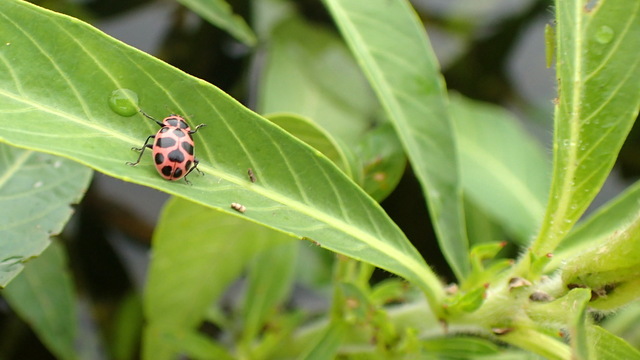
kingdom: Animalia
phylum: Arthropoda
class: Insecta
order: Coleoptera
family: Coccinellidae
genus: Coleomegilla
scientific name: Coleomegilla maculata
